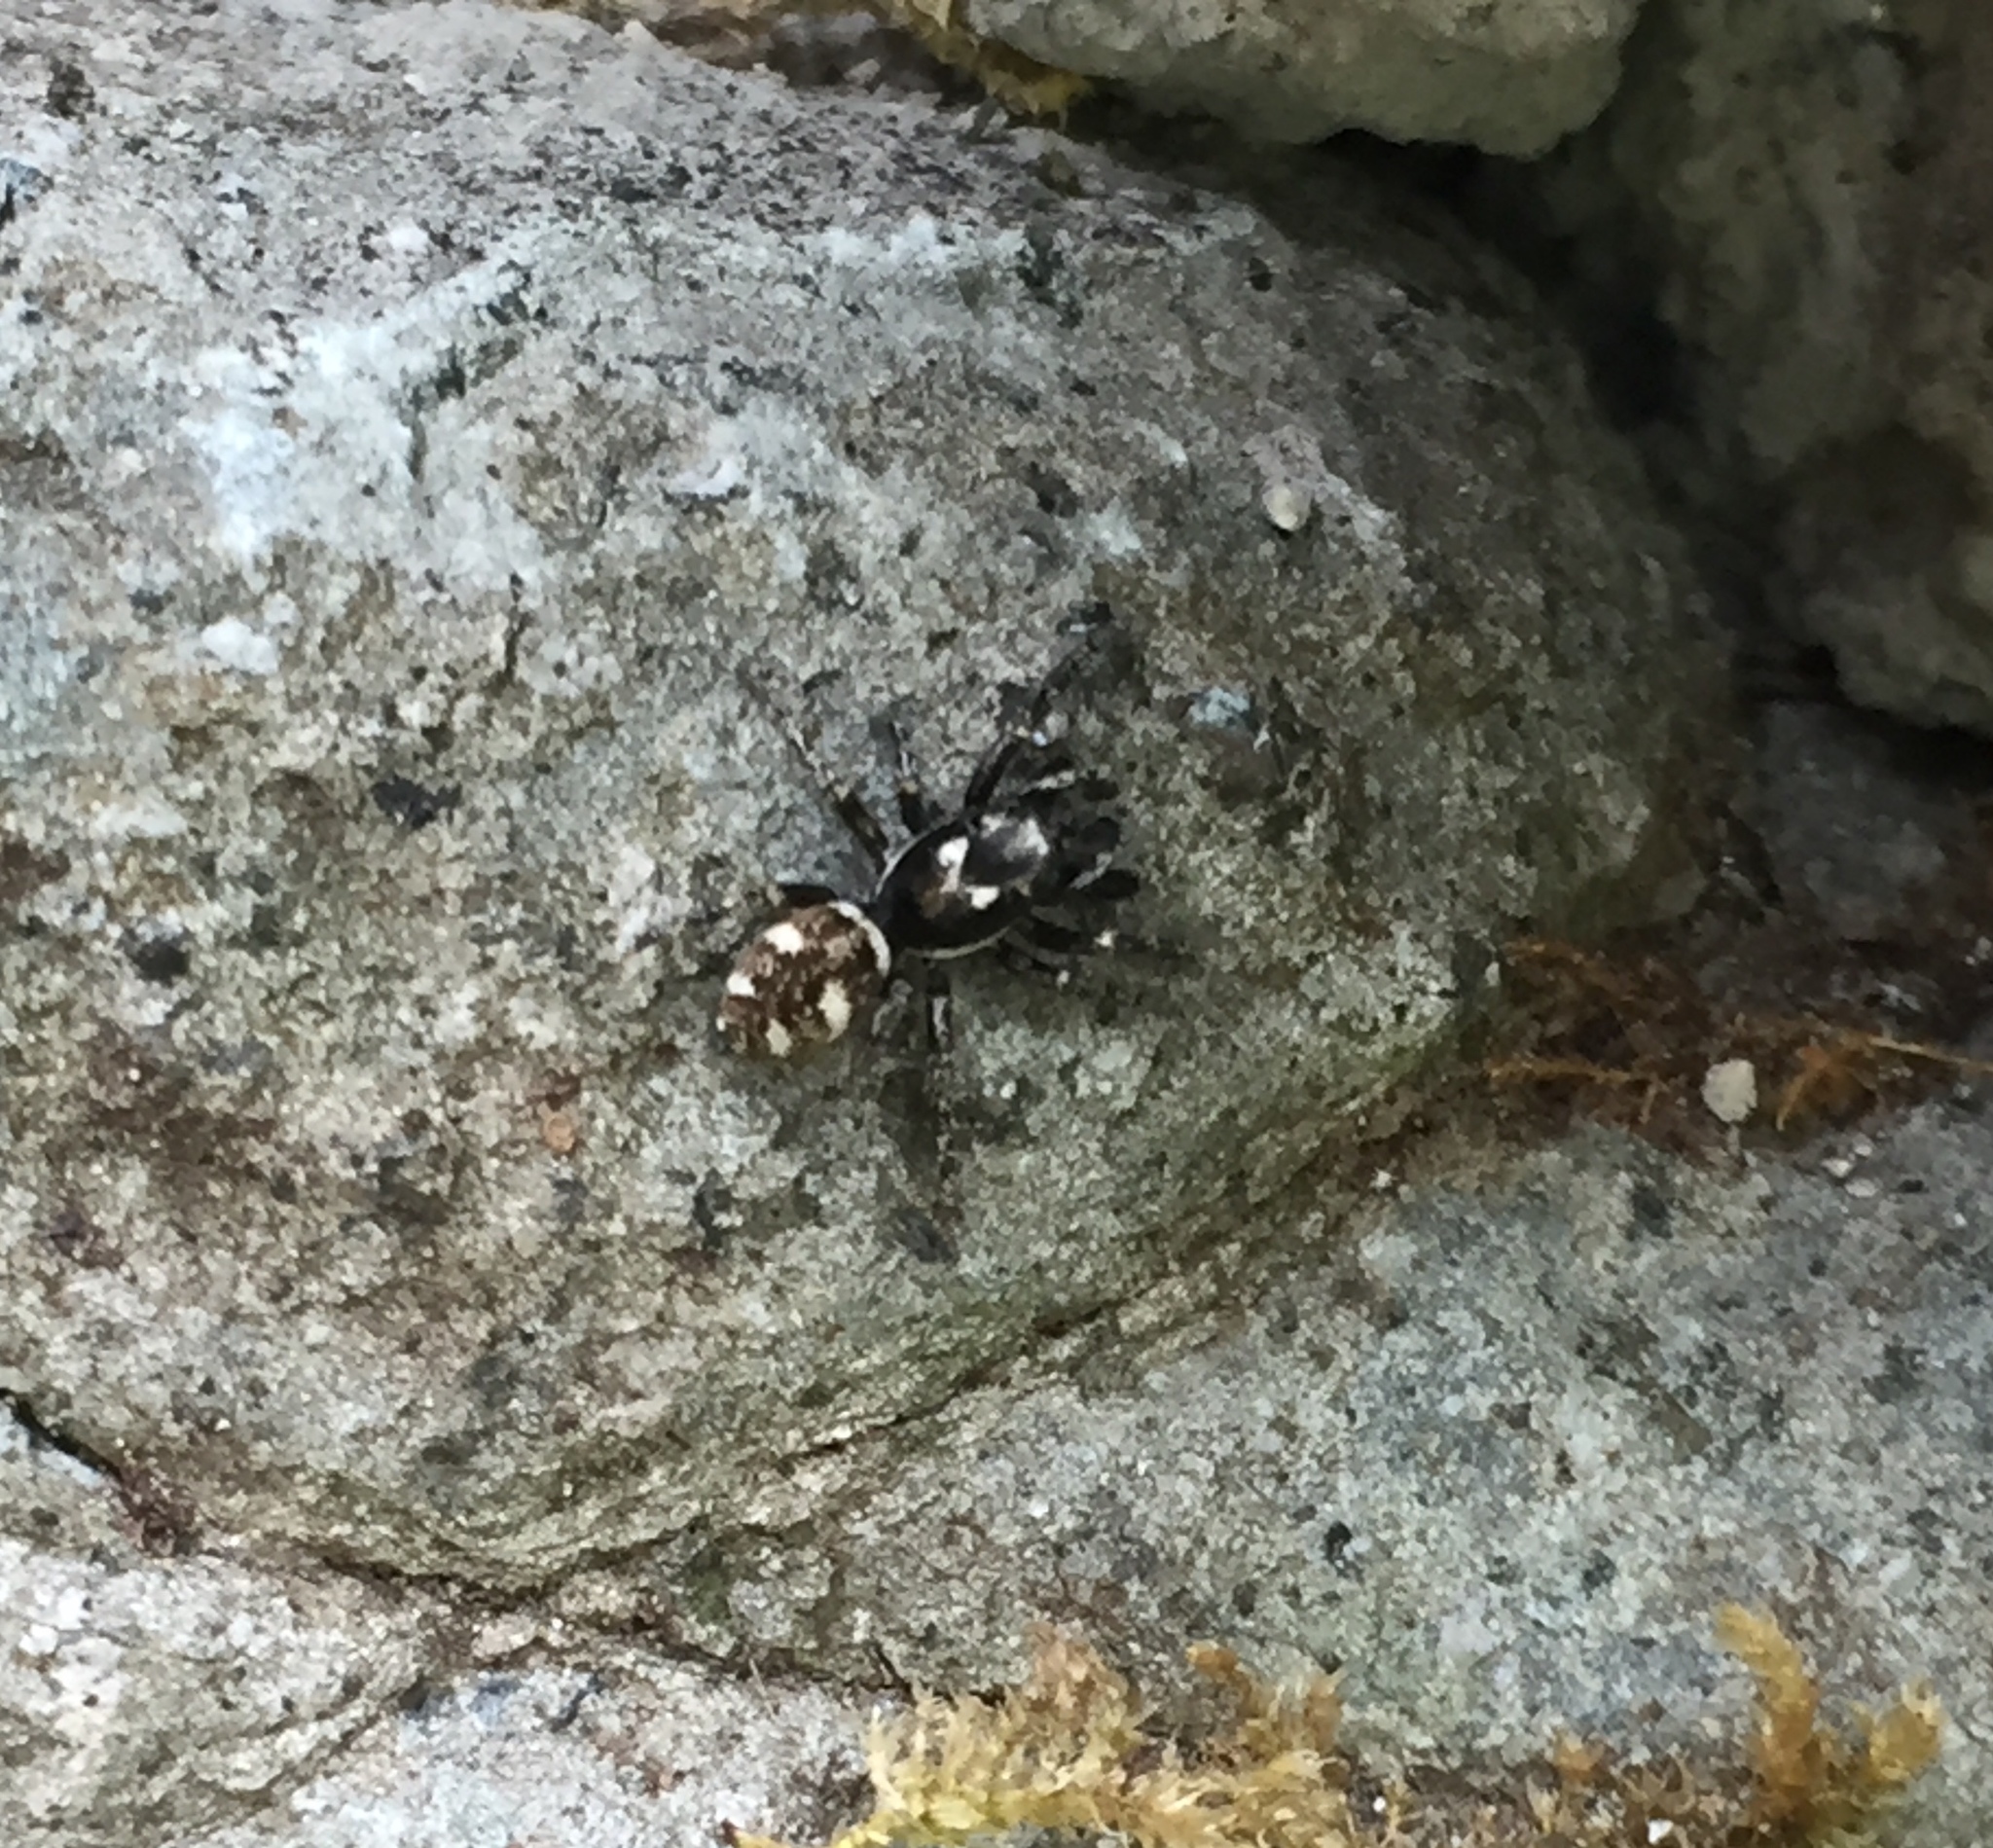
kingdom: Animalia
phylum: Arthropoda
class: Arachnida
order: Araneae
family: Salticidae
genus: Salticus
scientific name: Salticus scenicus
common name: Zebra jumper
